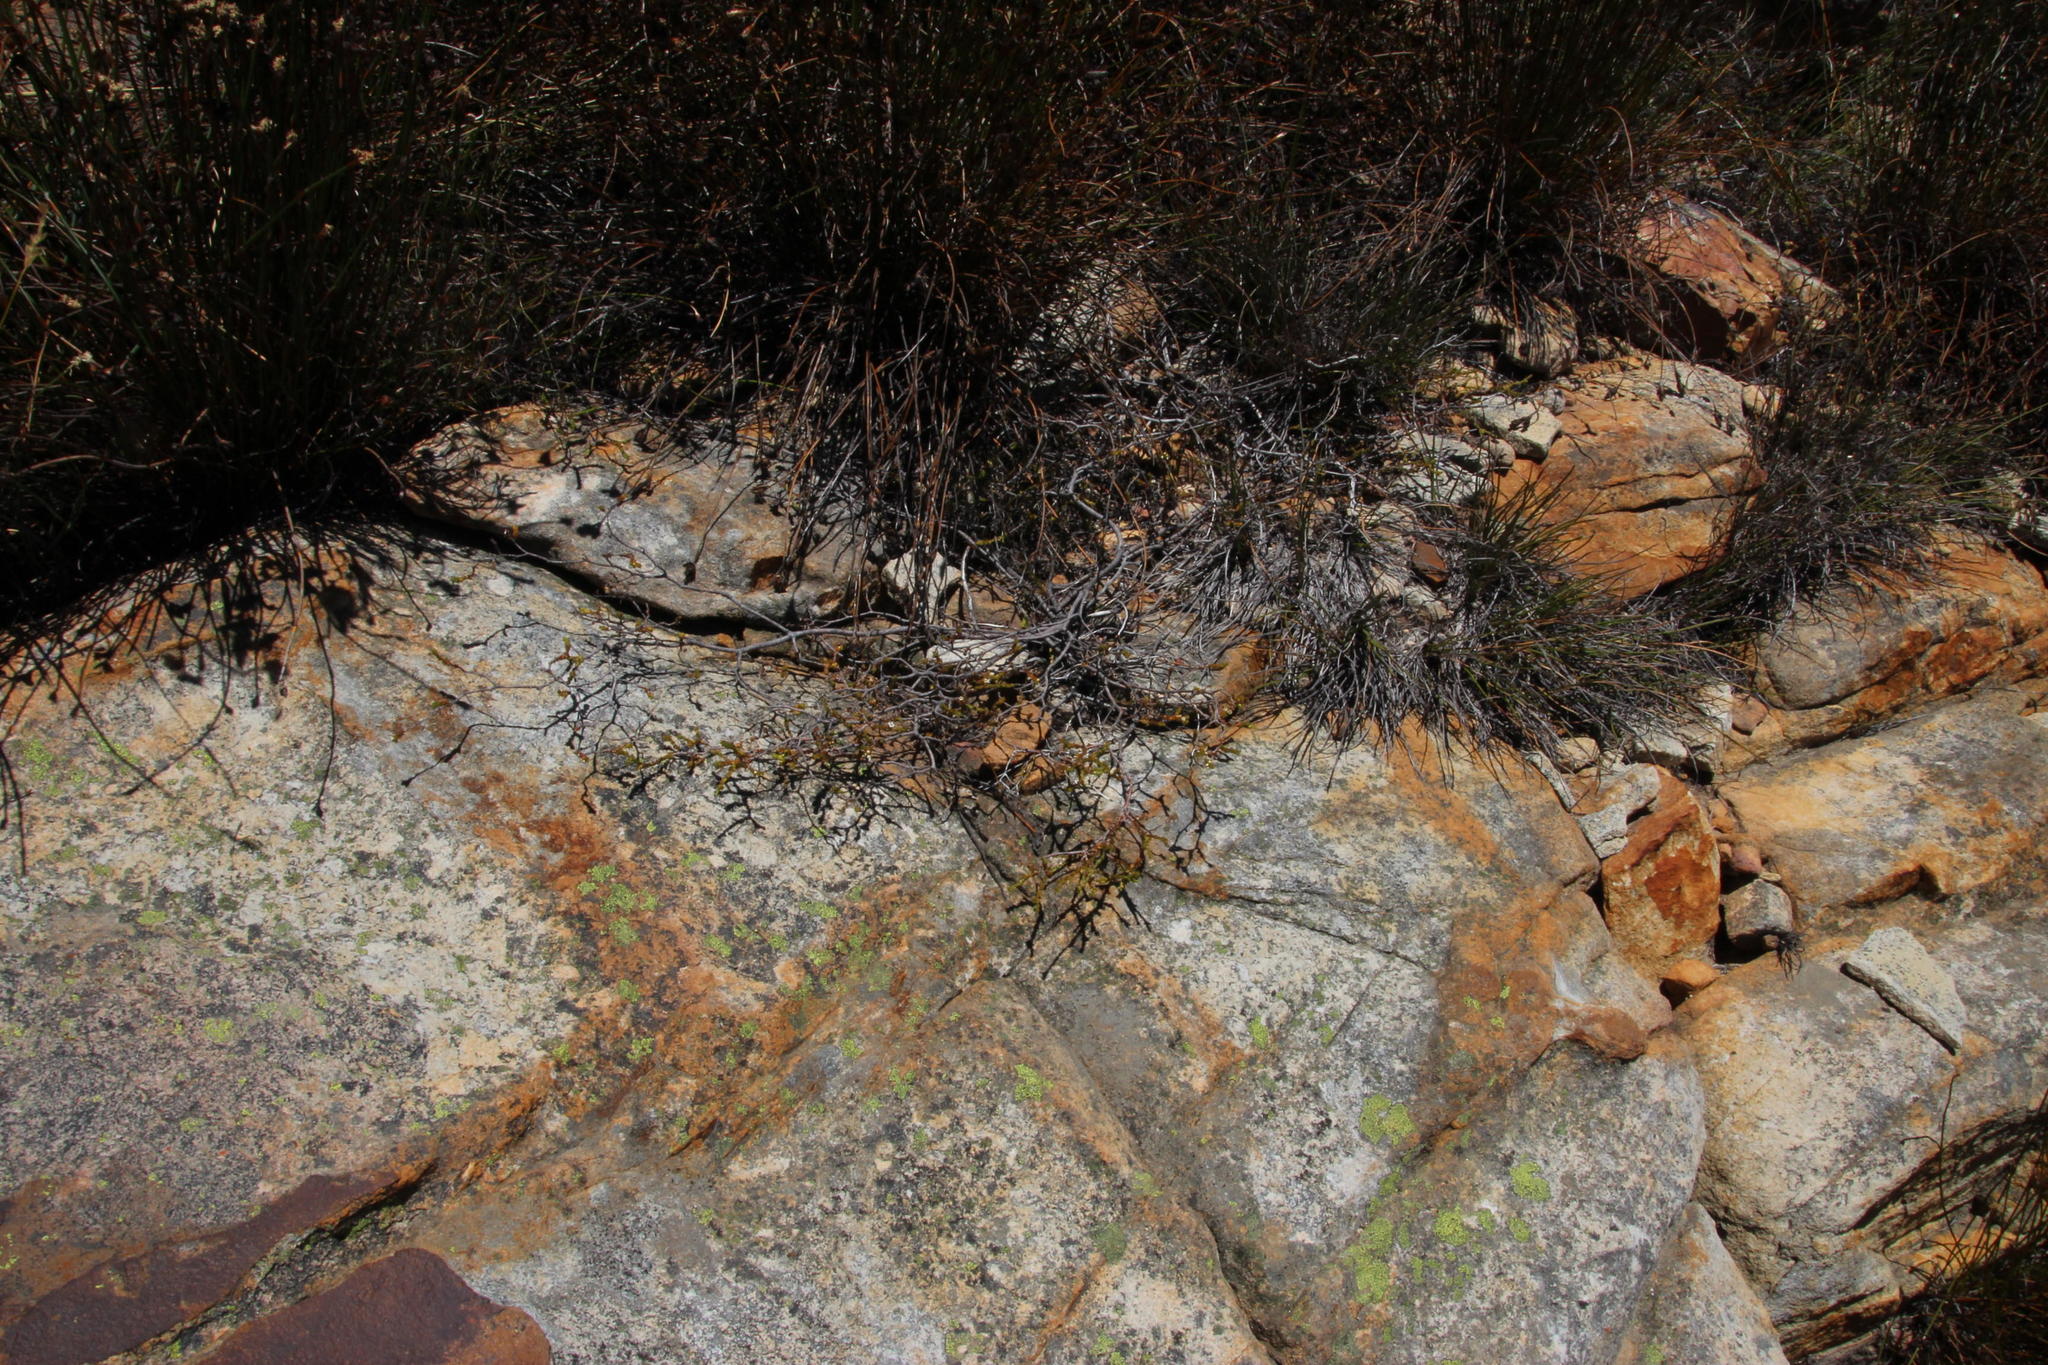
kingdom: Plantae
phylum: Tracheophyta
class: Magnoliopsida
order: Sapindales
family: Rutaceae
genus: Euchaetis
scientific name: Euchaetis elsieae
